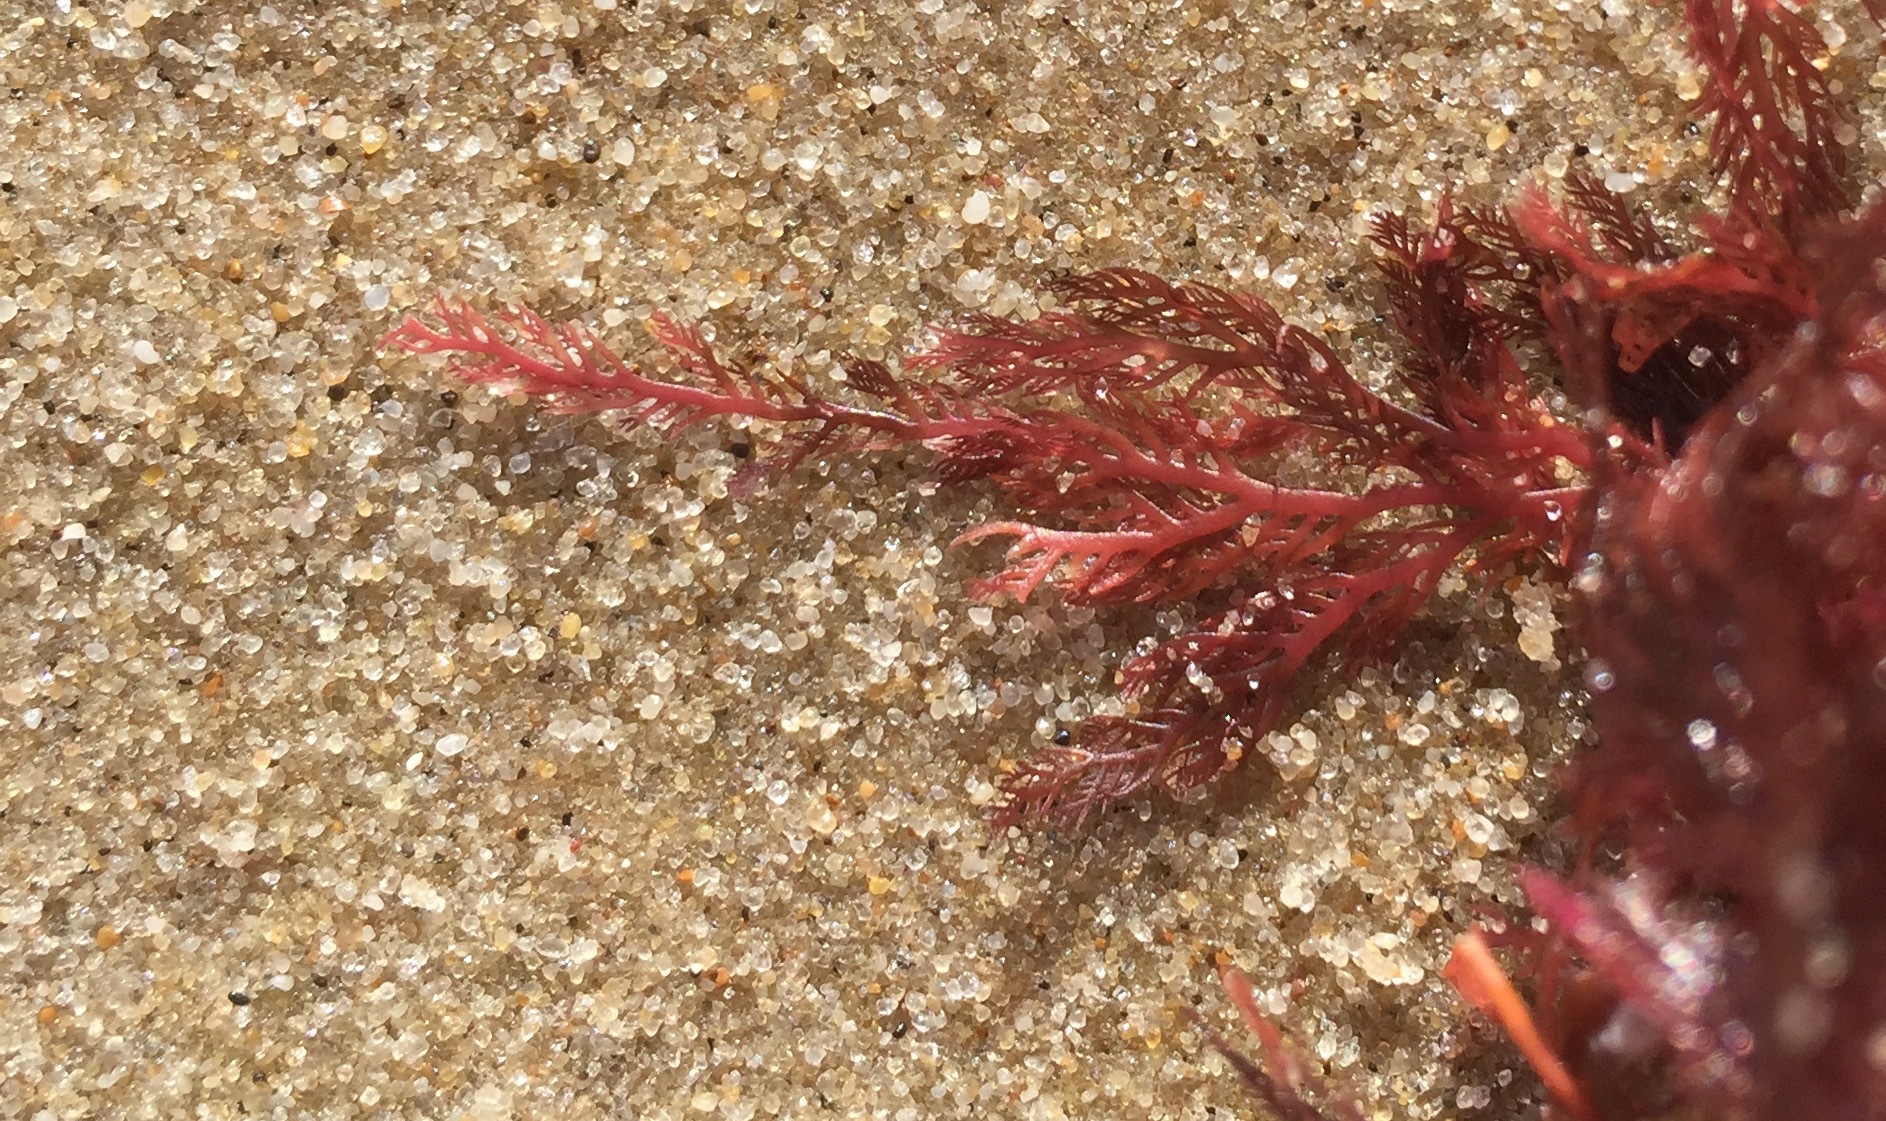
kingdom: Plantae
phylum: Rhodophyta
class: Florideophyceae
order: Plocamiales
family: Plocamiaceae
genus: Plocamium
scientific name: Plocamium cartilagineum
